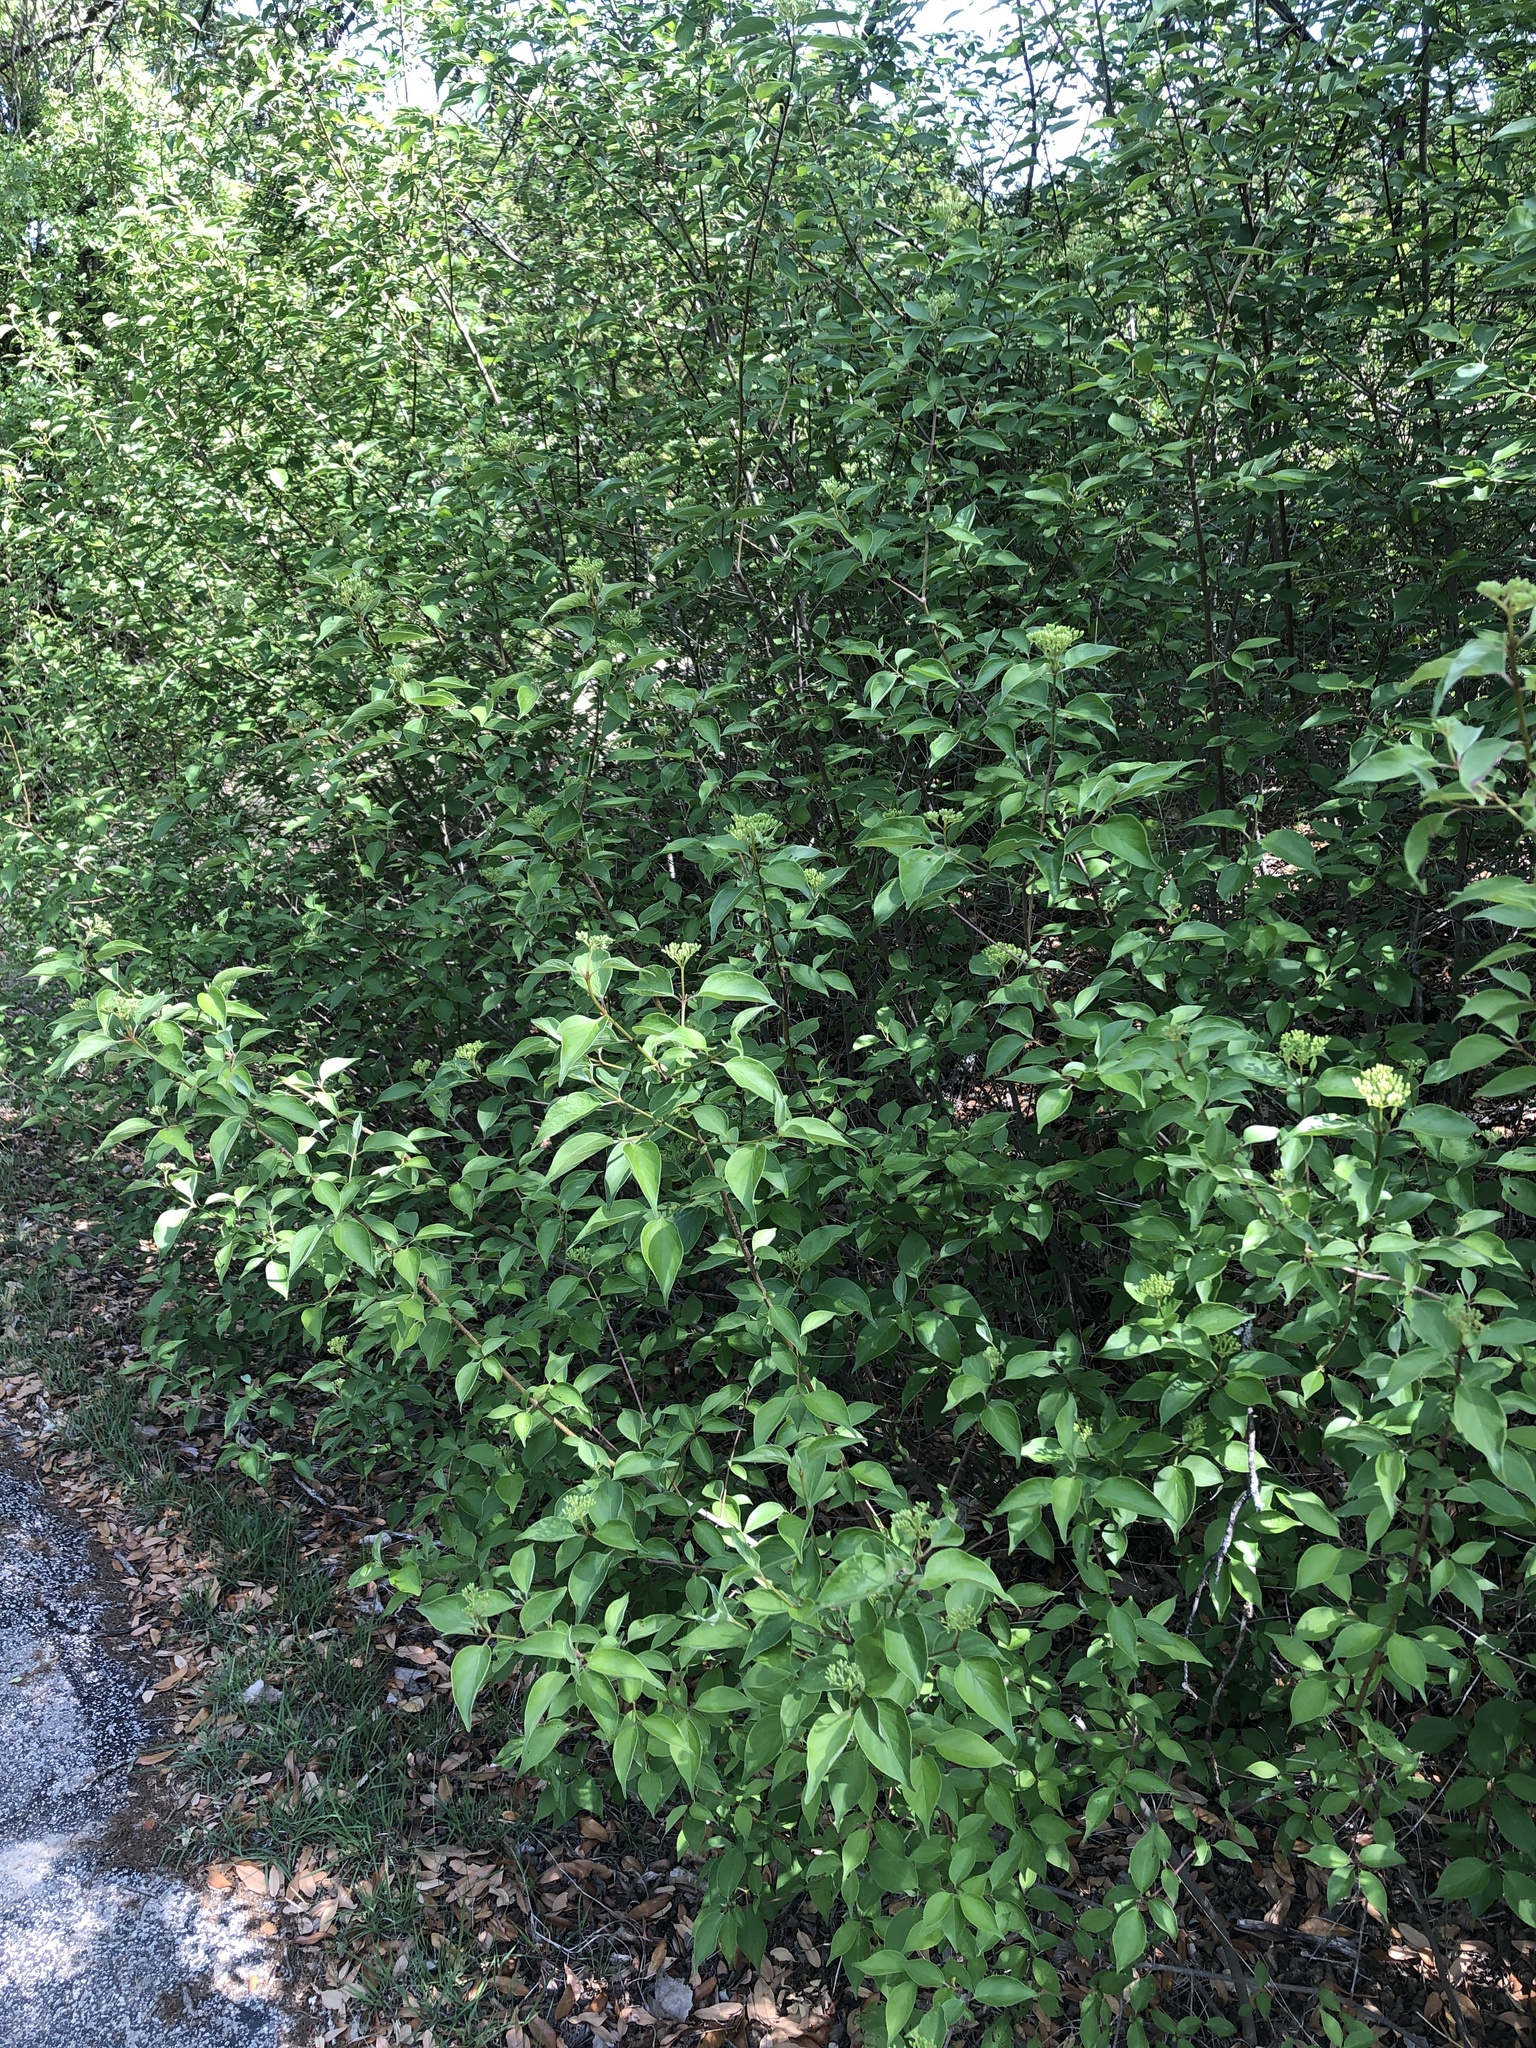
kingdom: Plantae
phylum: Tracheophyta
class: Magnoliopsida
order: Cornales
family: Cornaceae
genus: Cornus
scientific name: Cornus drummondii
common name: Rough-leaf dogwood
